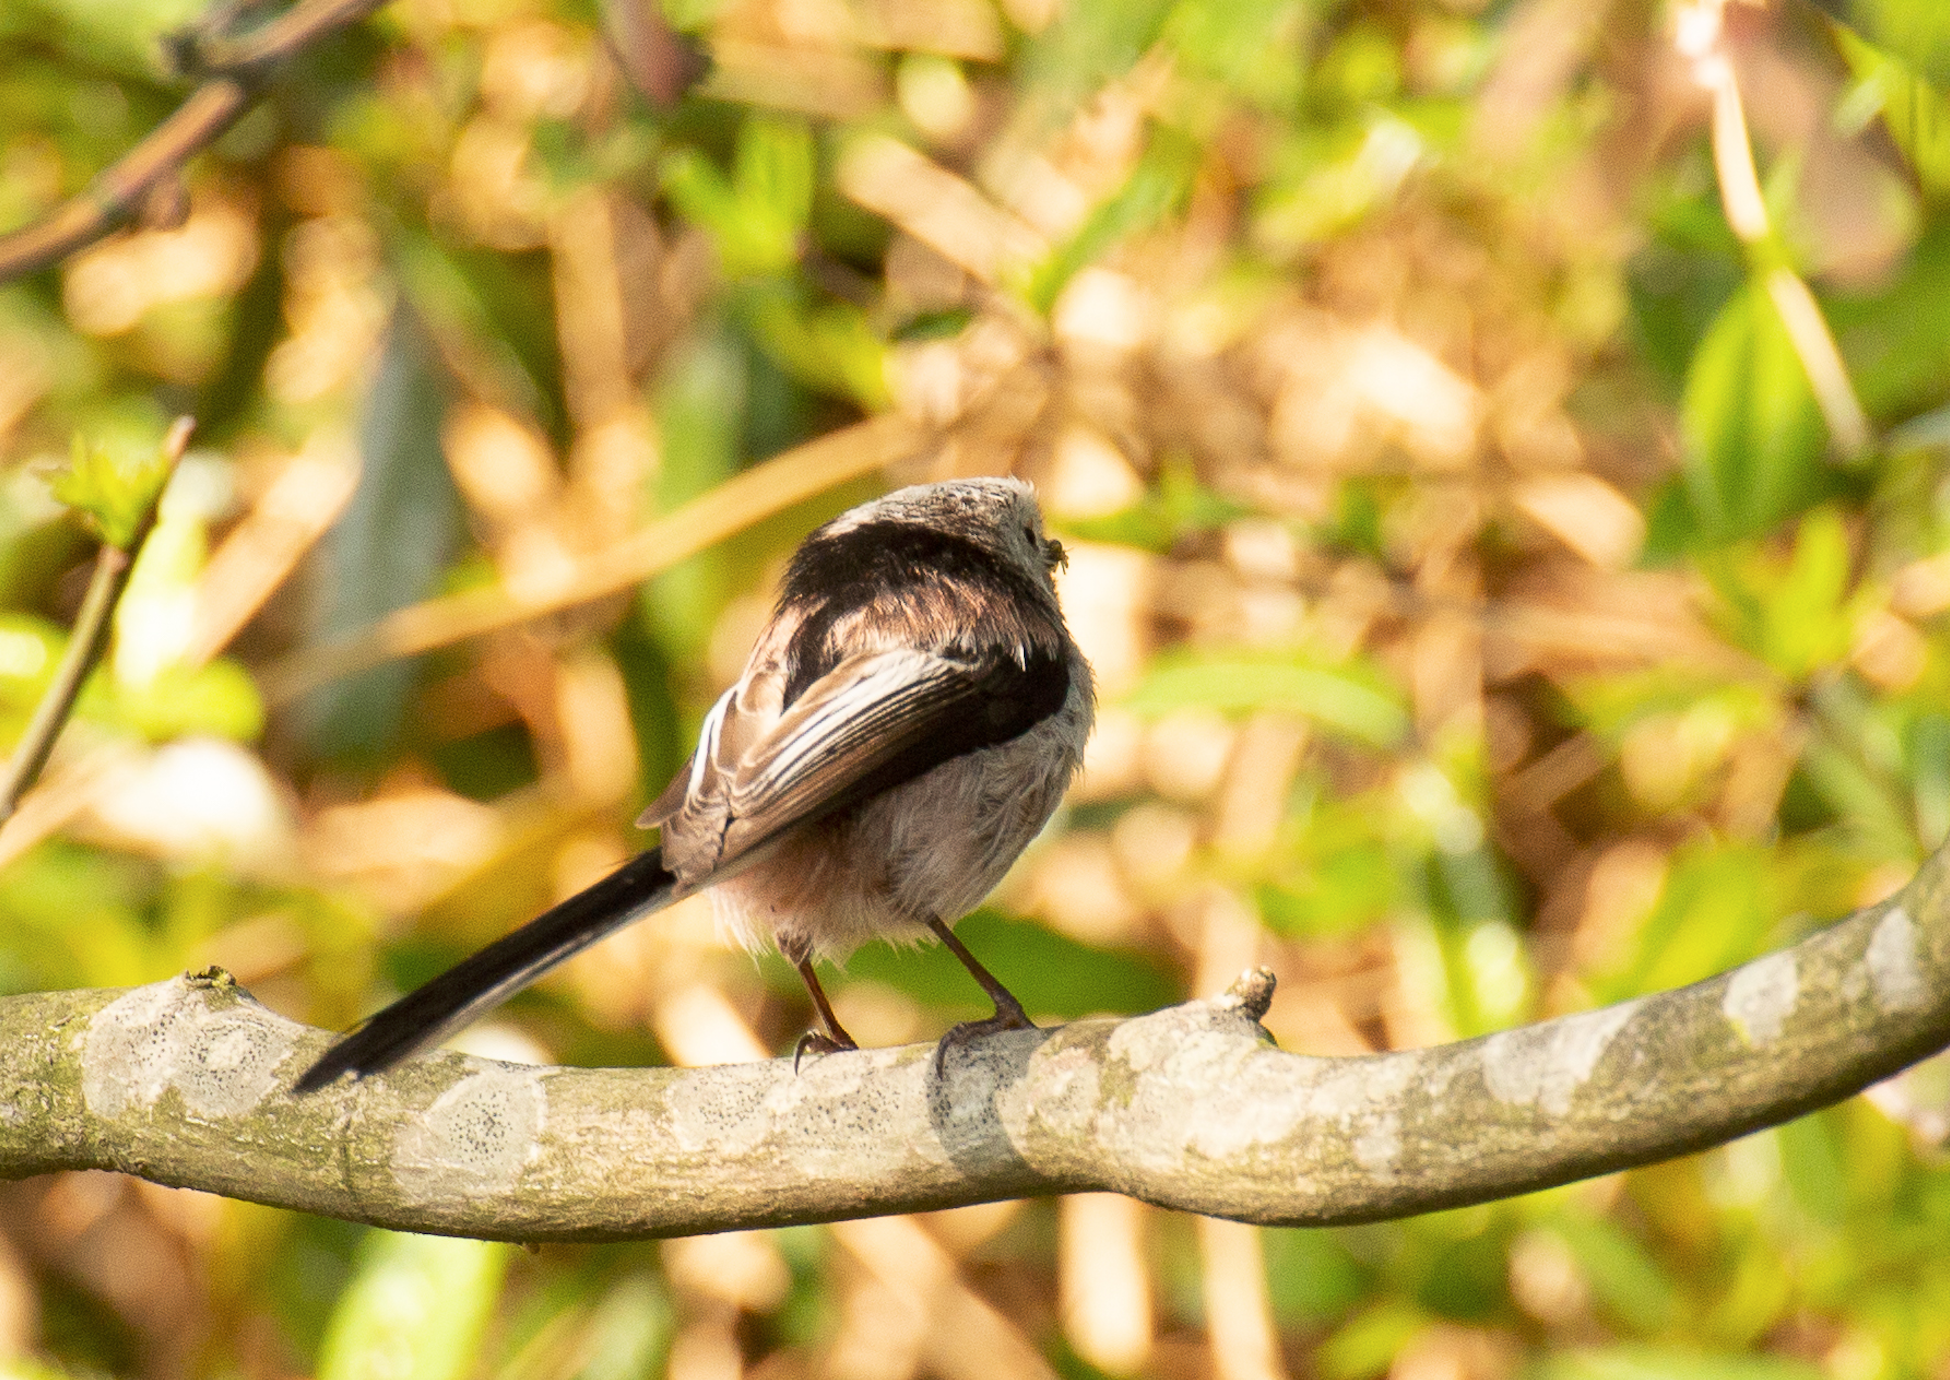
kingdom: Animalia
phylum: Chordata
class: Aves
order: Passeriformes
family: Aegithalidae
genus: Aegithalos
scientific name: Aegithalos caudatus
